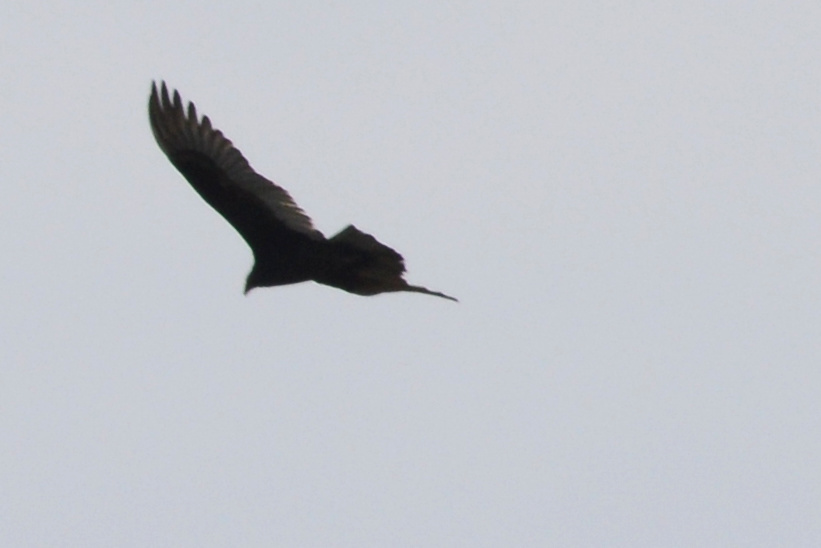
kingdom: Animalia
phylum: Chordata
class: Aves
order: Accipitriformes
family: Cathartidae
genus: Cathartes
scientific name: Cathartes aura
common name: Turkey vulture
